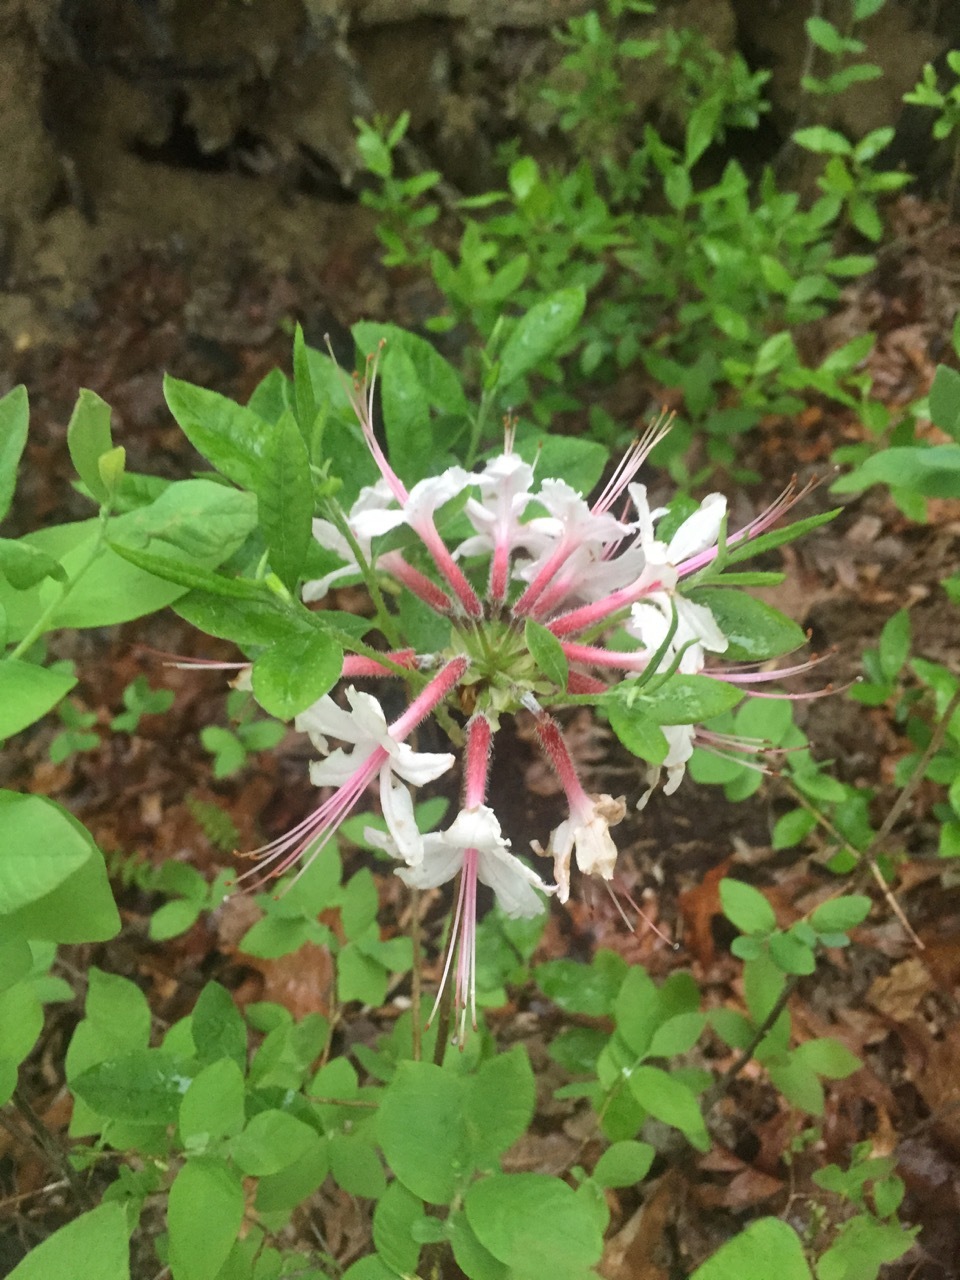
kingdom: Plantae
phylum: Tracheophyta
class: Magnoliopsida
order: Ericales
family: Ericaceae
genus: Rhododendron
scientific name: Rhododendron periclymenoides
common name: Election-pink
